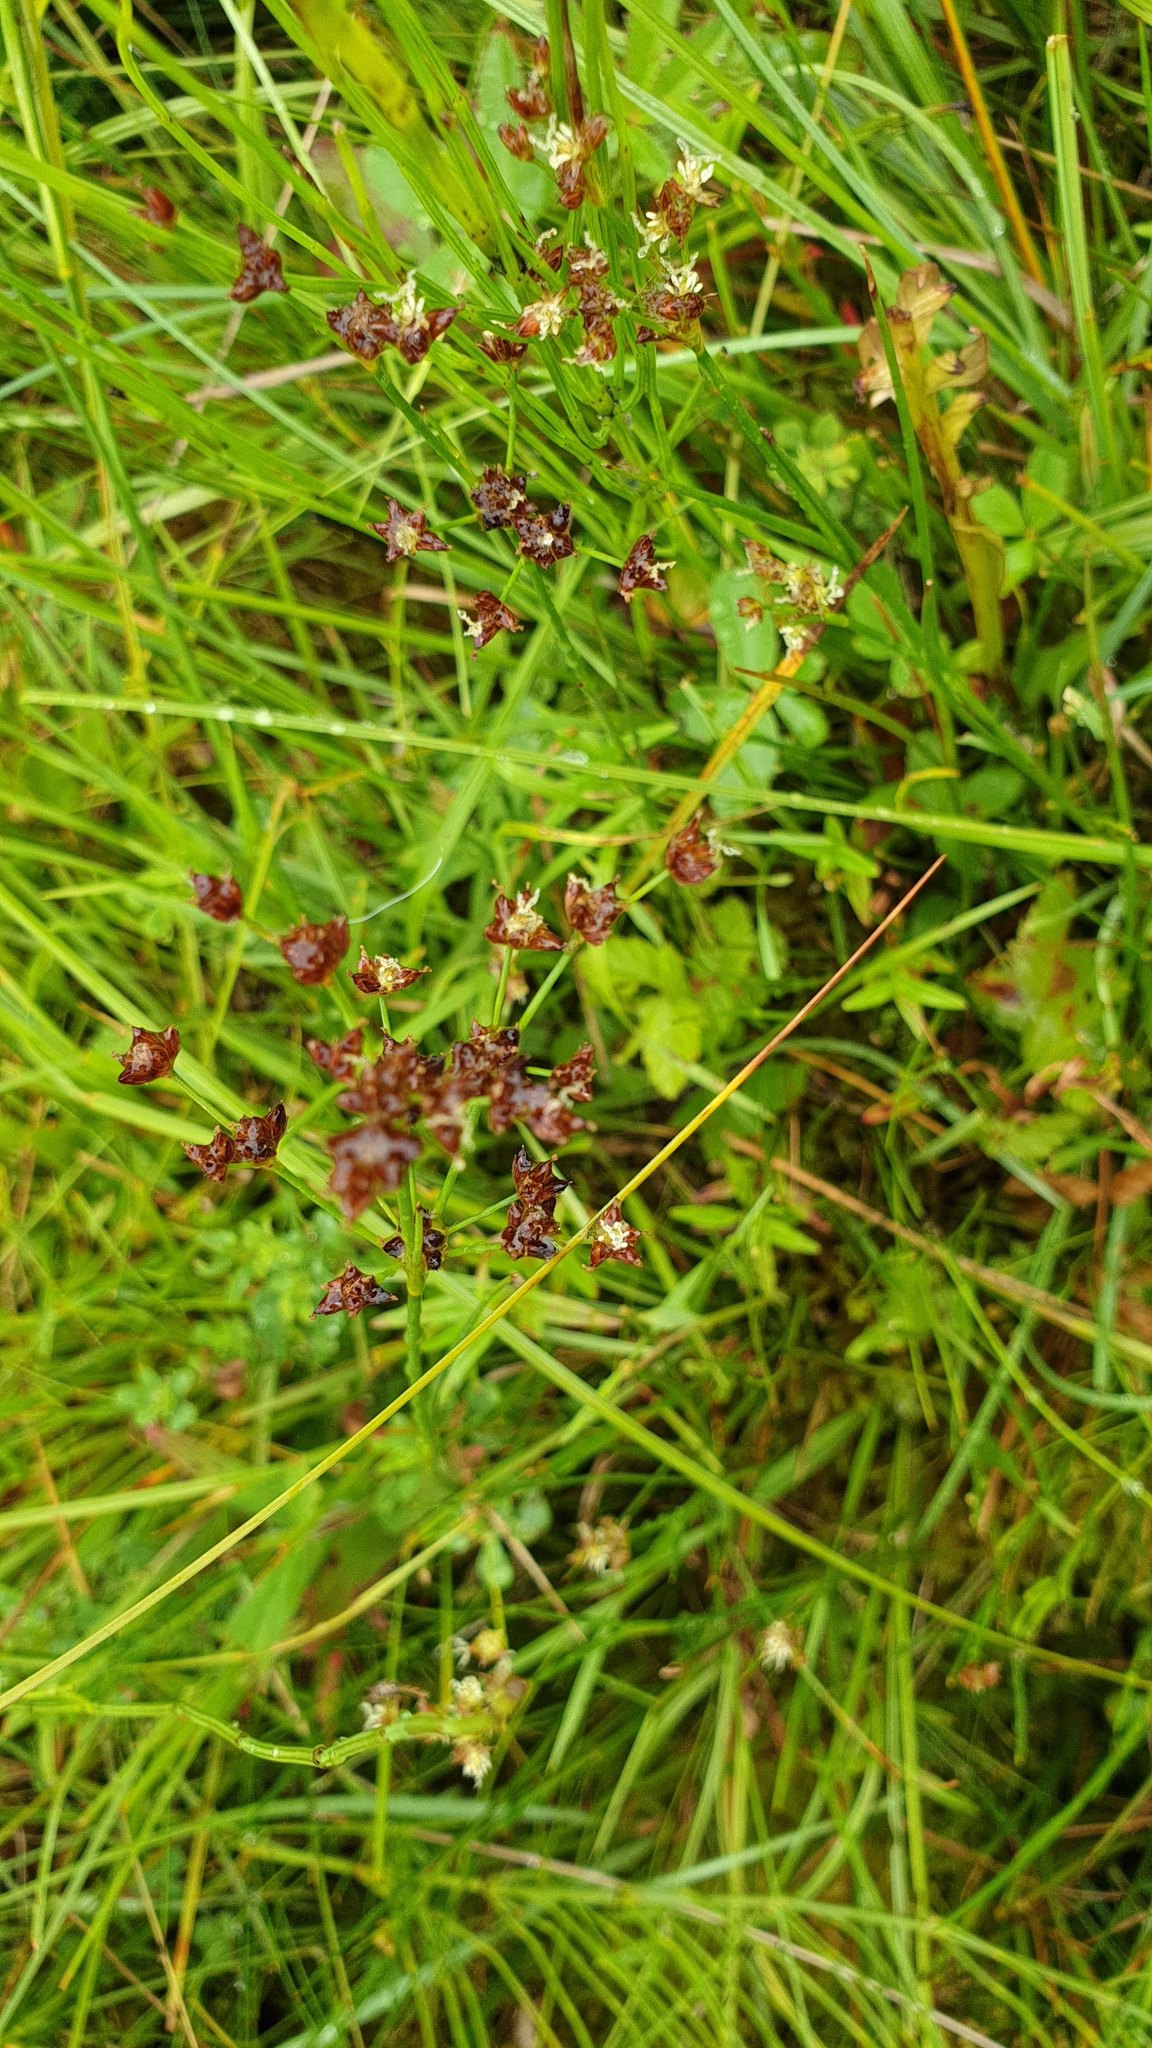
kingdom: Plantae
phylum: Tracheophyta
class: Liliopsida
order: Poales
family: Juncaceae
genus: Juncus
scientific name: Juncus articulatus
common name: Jointed rush
